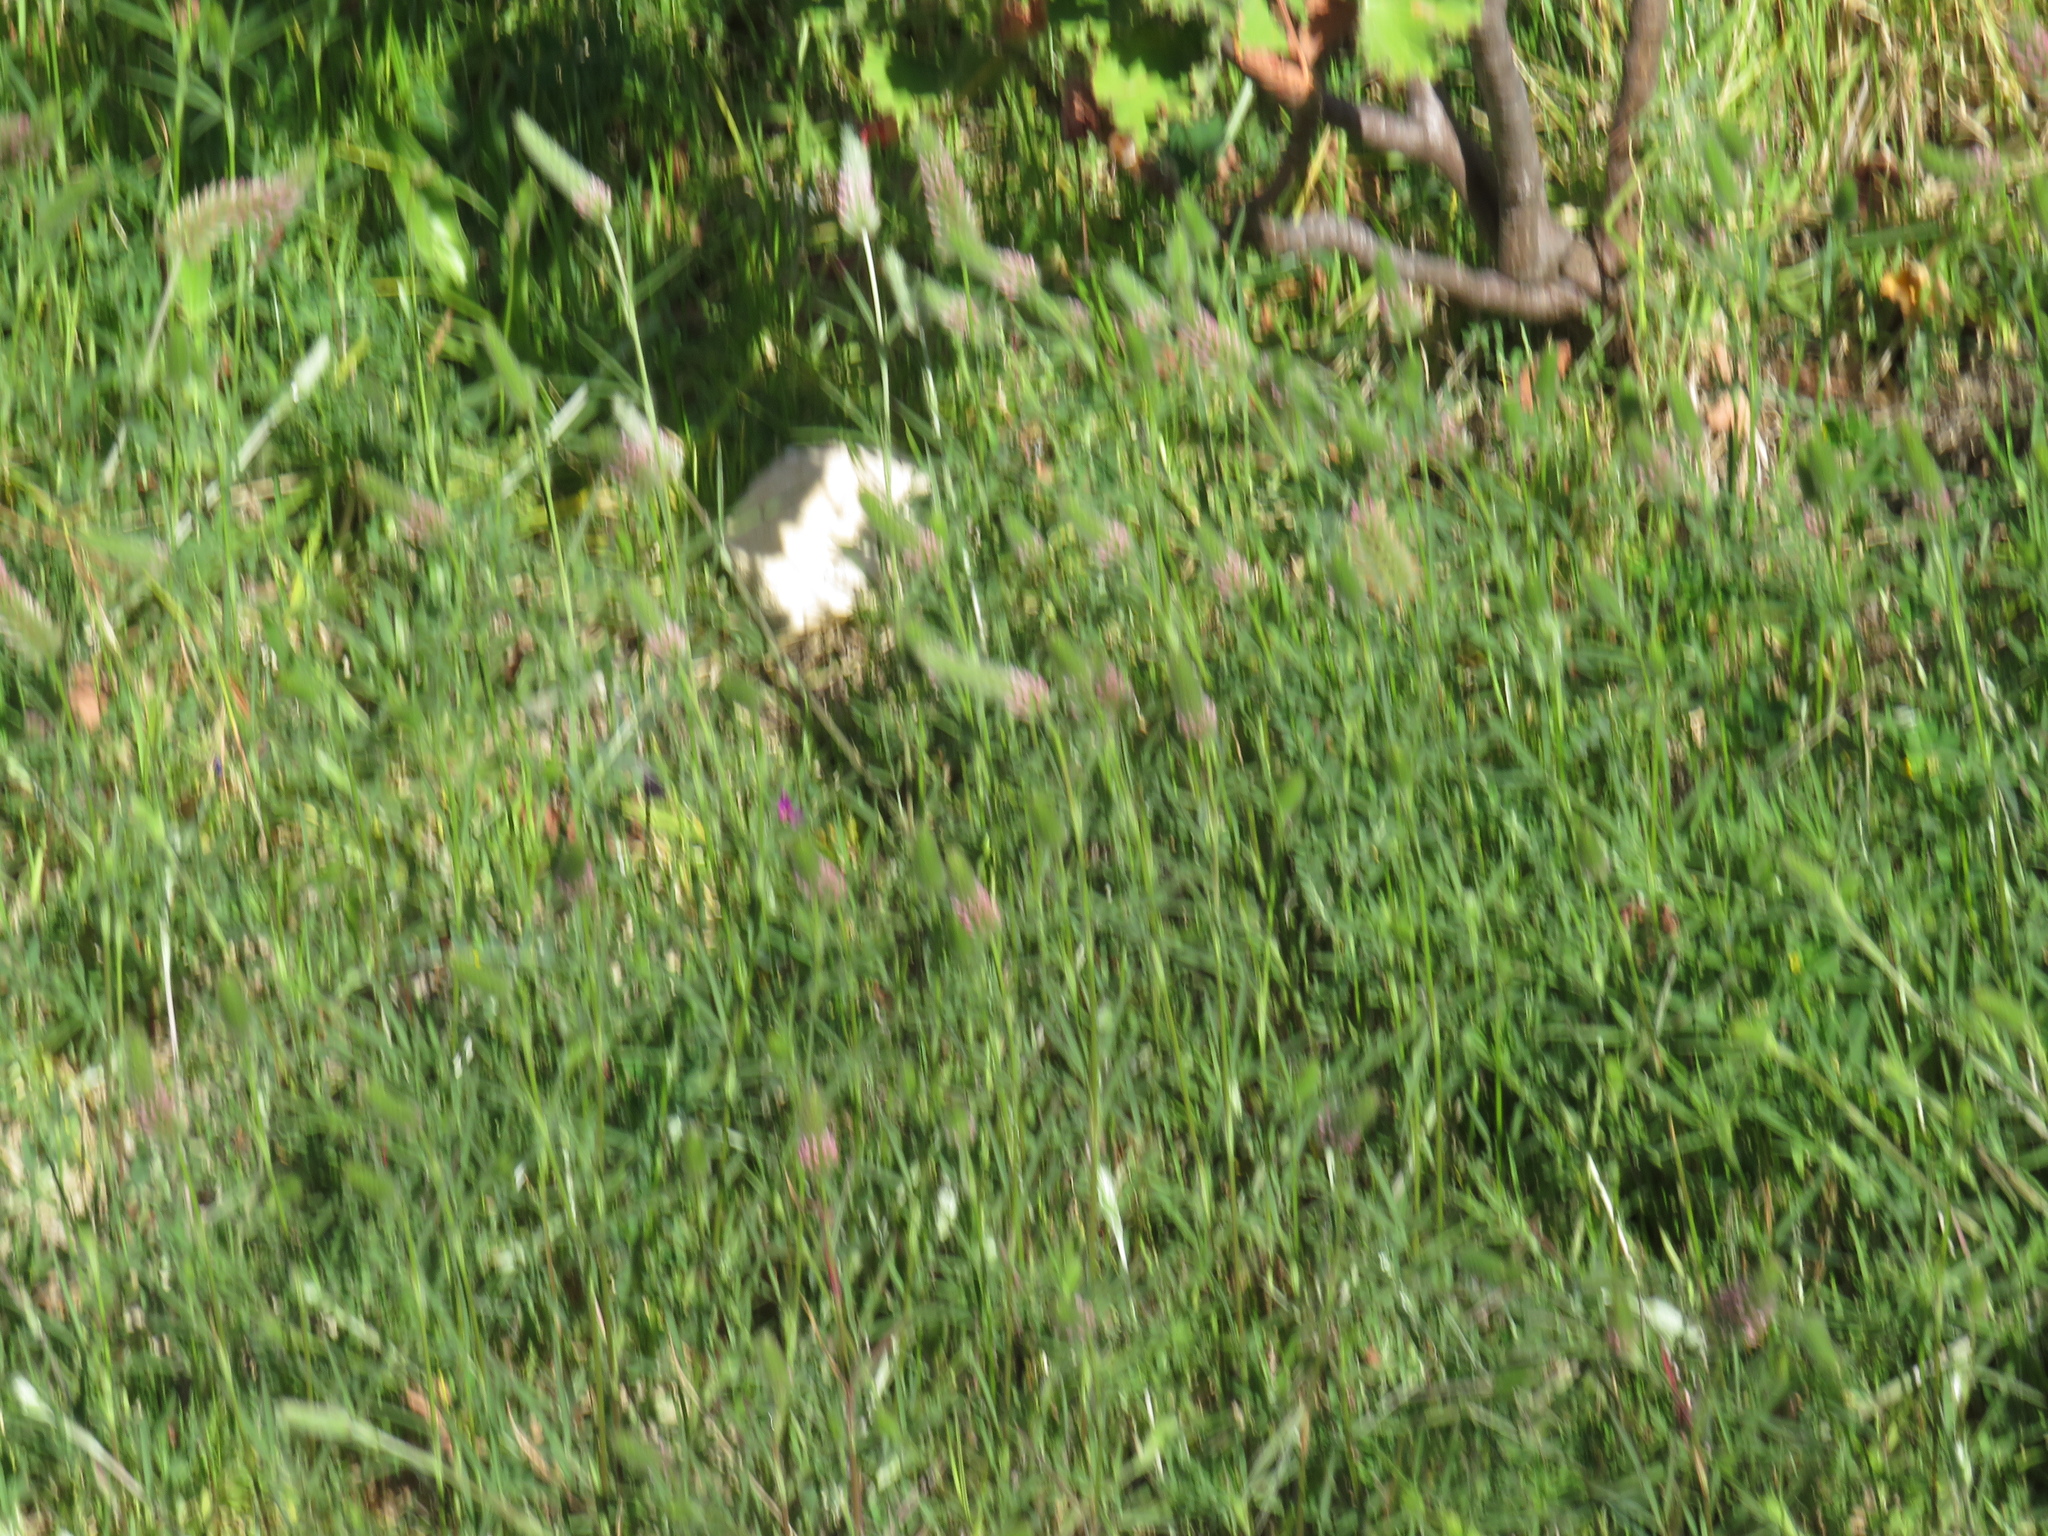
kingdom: Plantae
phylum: Tracheophyta
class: Magnoliopsida
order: Fabales
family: Fabaceae
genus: Trifolium
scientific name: Trifolium angustifolium
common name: Narrow clover
